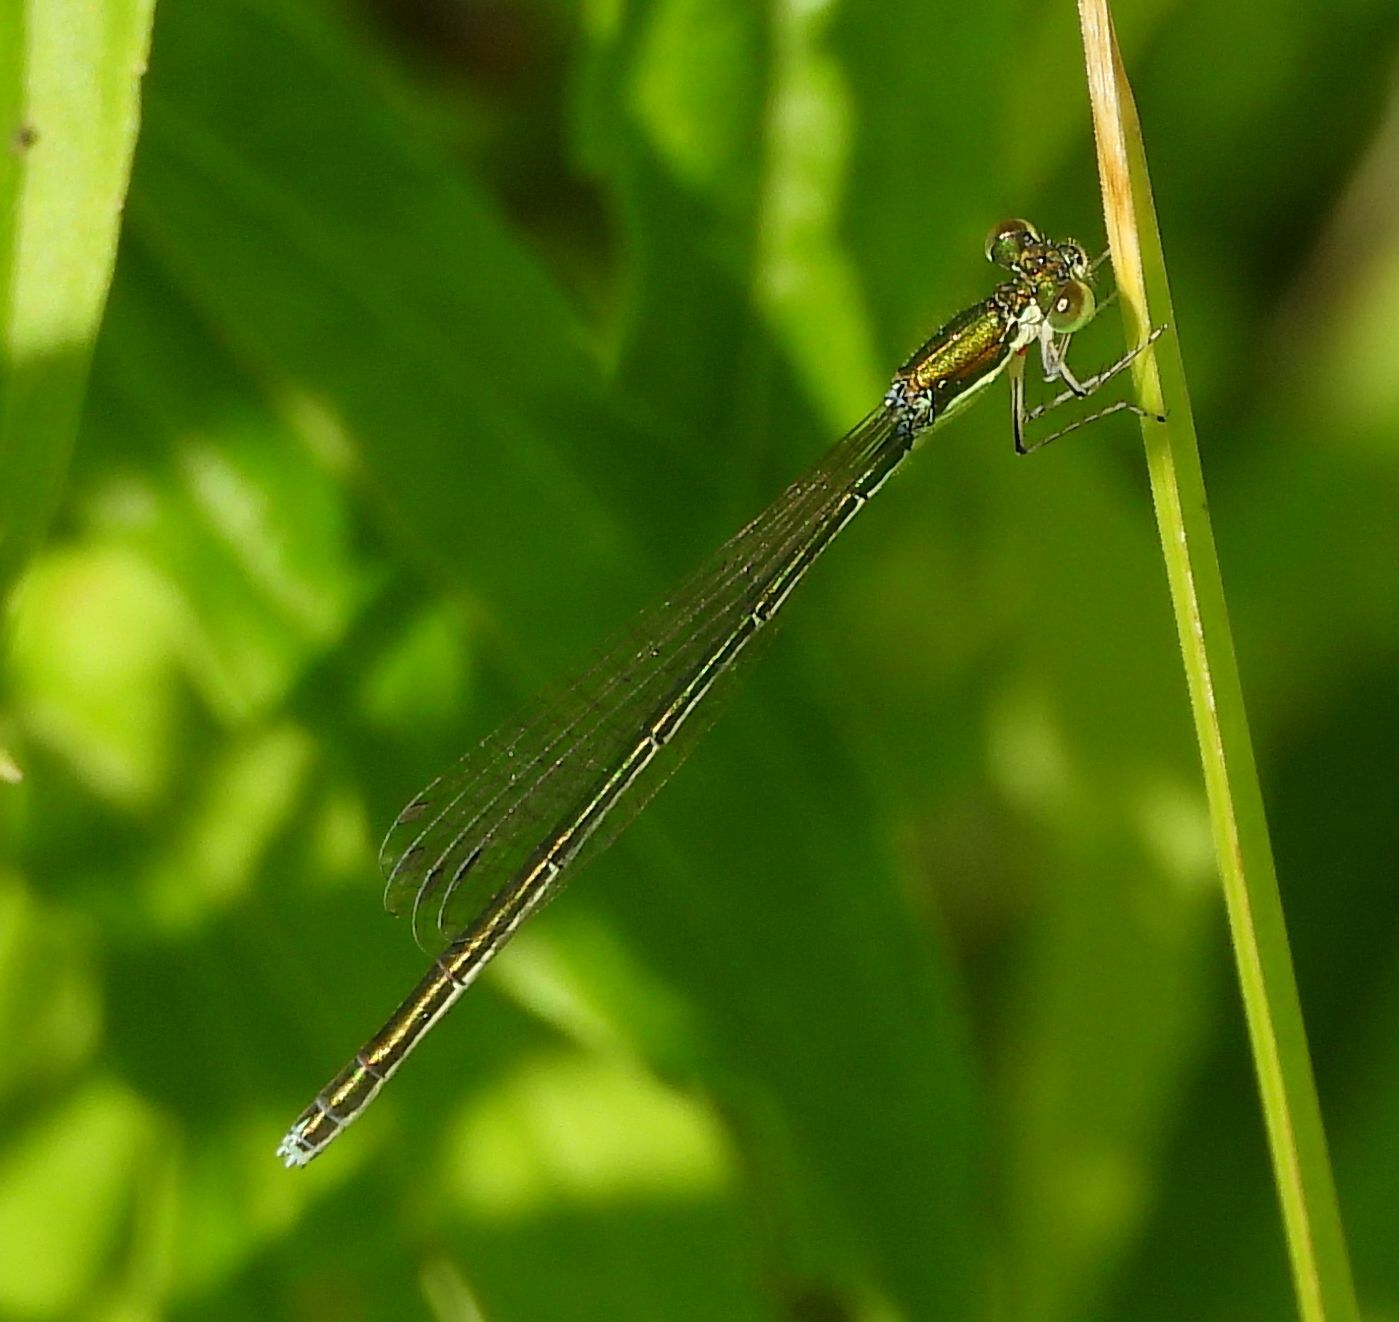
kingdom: Animalia
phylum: Arthropoda
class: Insecta
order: Odonata
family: Coenagrionidae
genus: Nehalennia
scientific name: Nehalennia irene
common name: Sedge sprite
